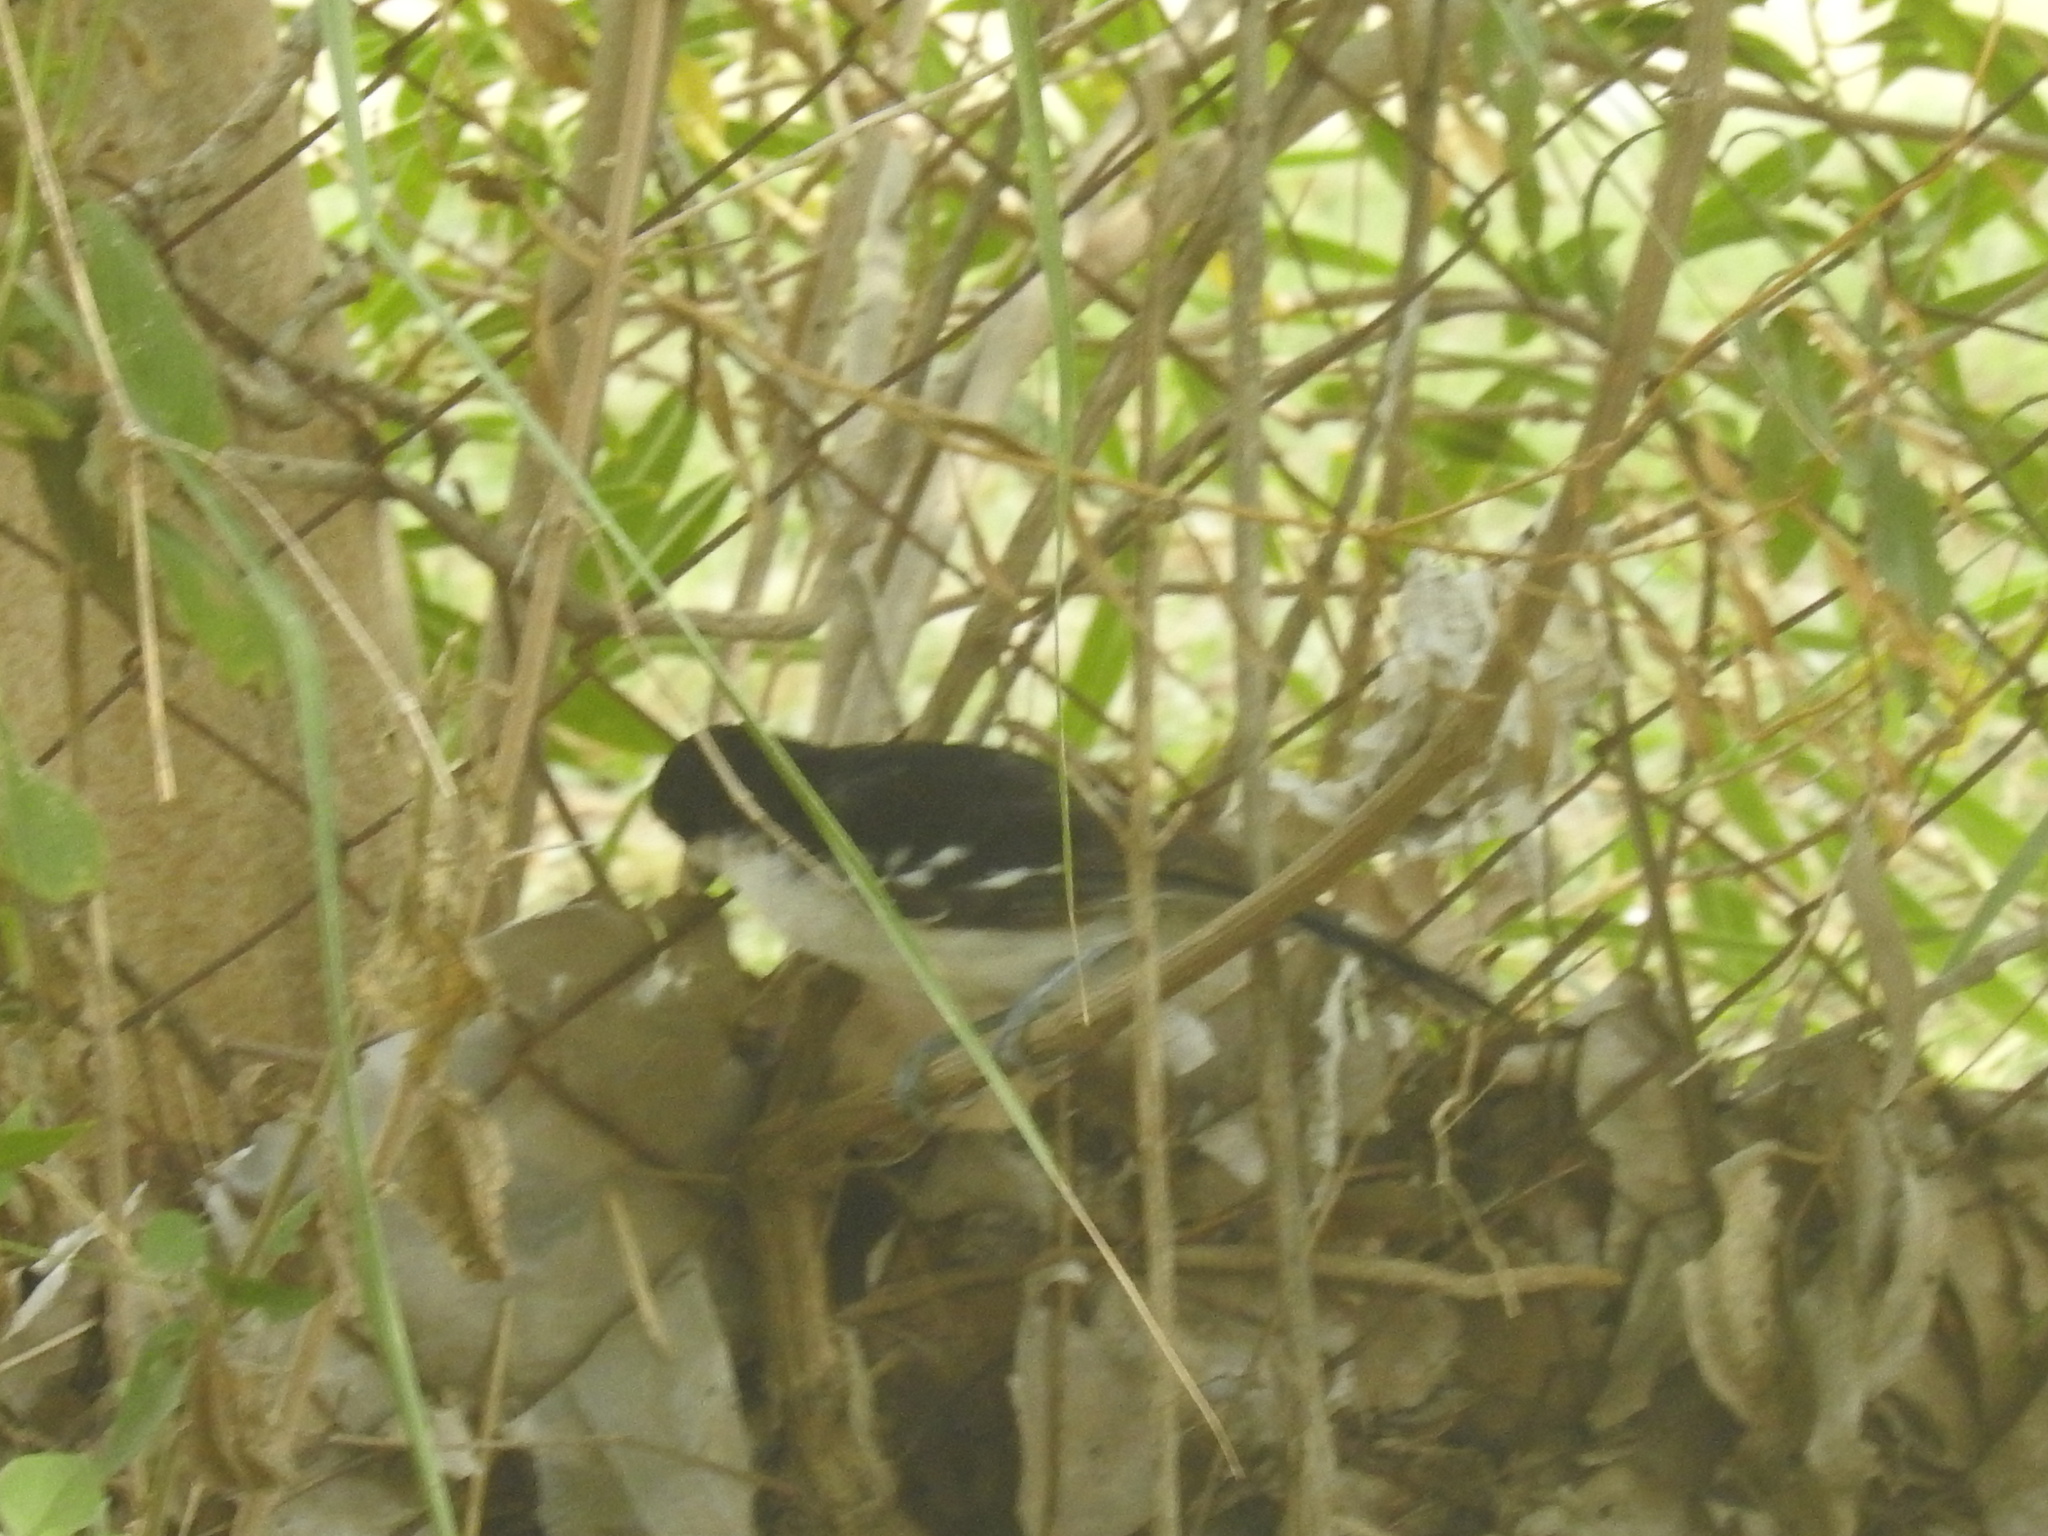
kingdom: Animalia
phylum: Chordata
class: Aves
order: Passeriformes
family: Thamnophilidae
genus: Taraba
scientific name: Taraba major
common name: Great antshrike
